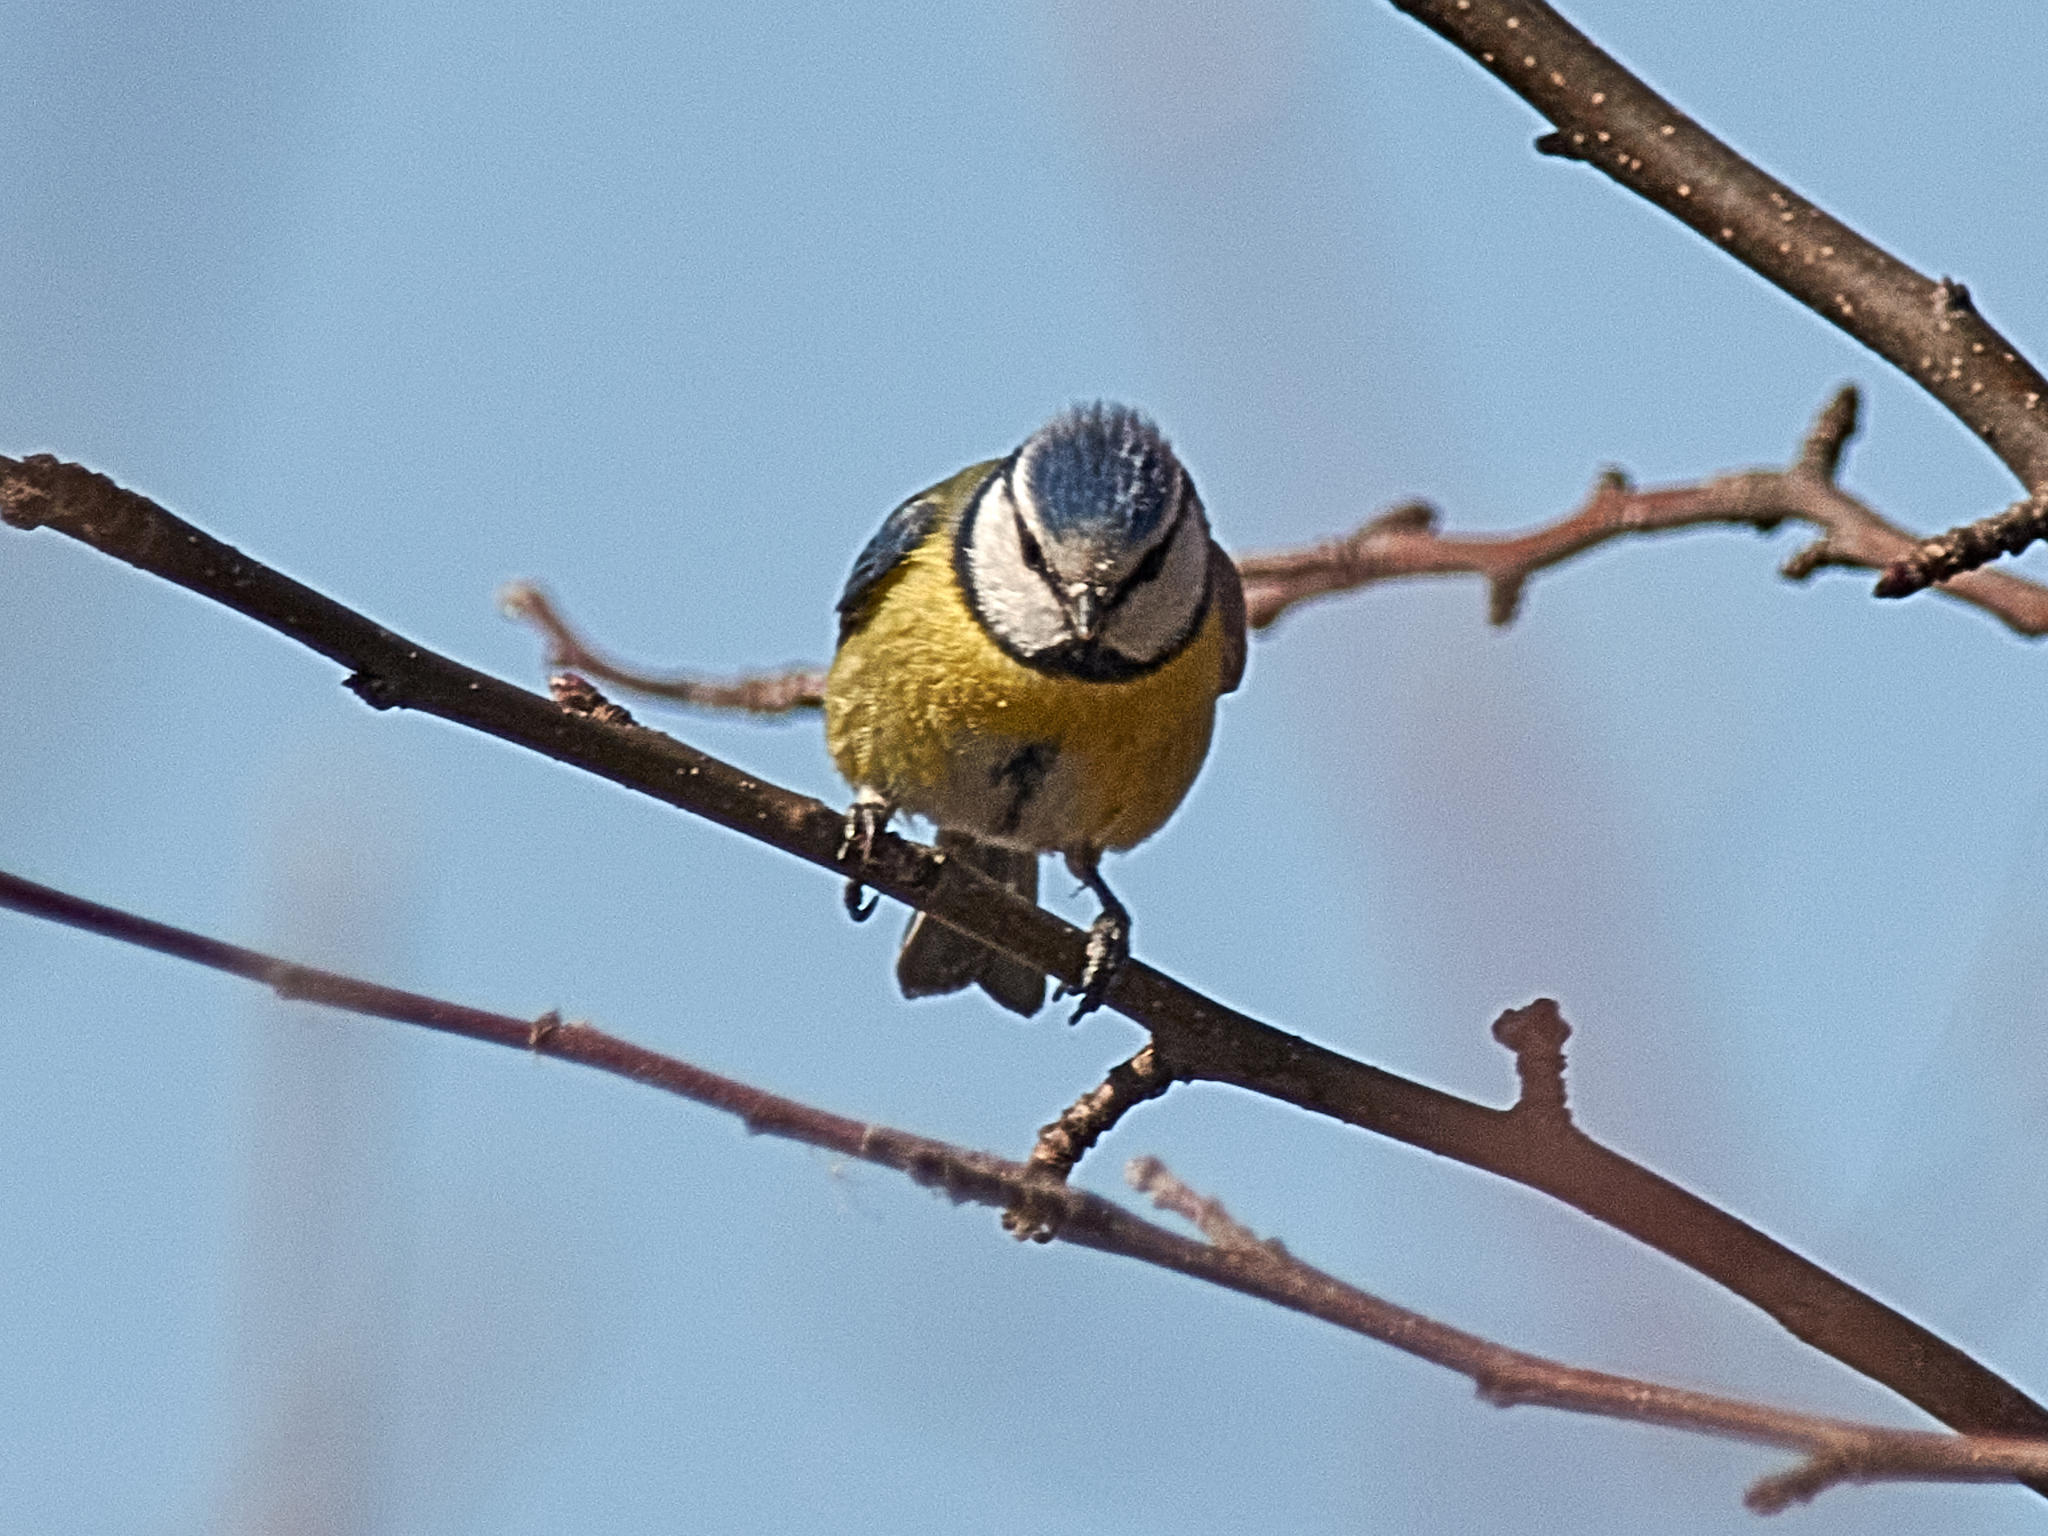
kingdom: Animalia
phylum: Chordata
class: Aves
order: Passeriformes
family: Paridae
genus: Cyanistes
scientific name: Cyanistes caeruleus
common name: Eurasian blue tit
